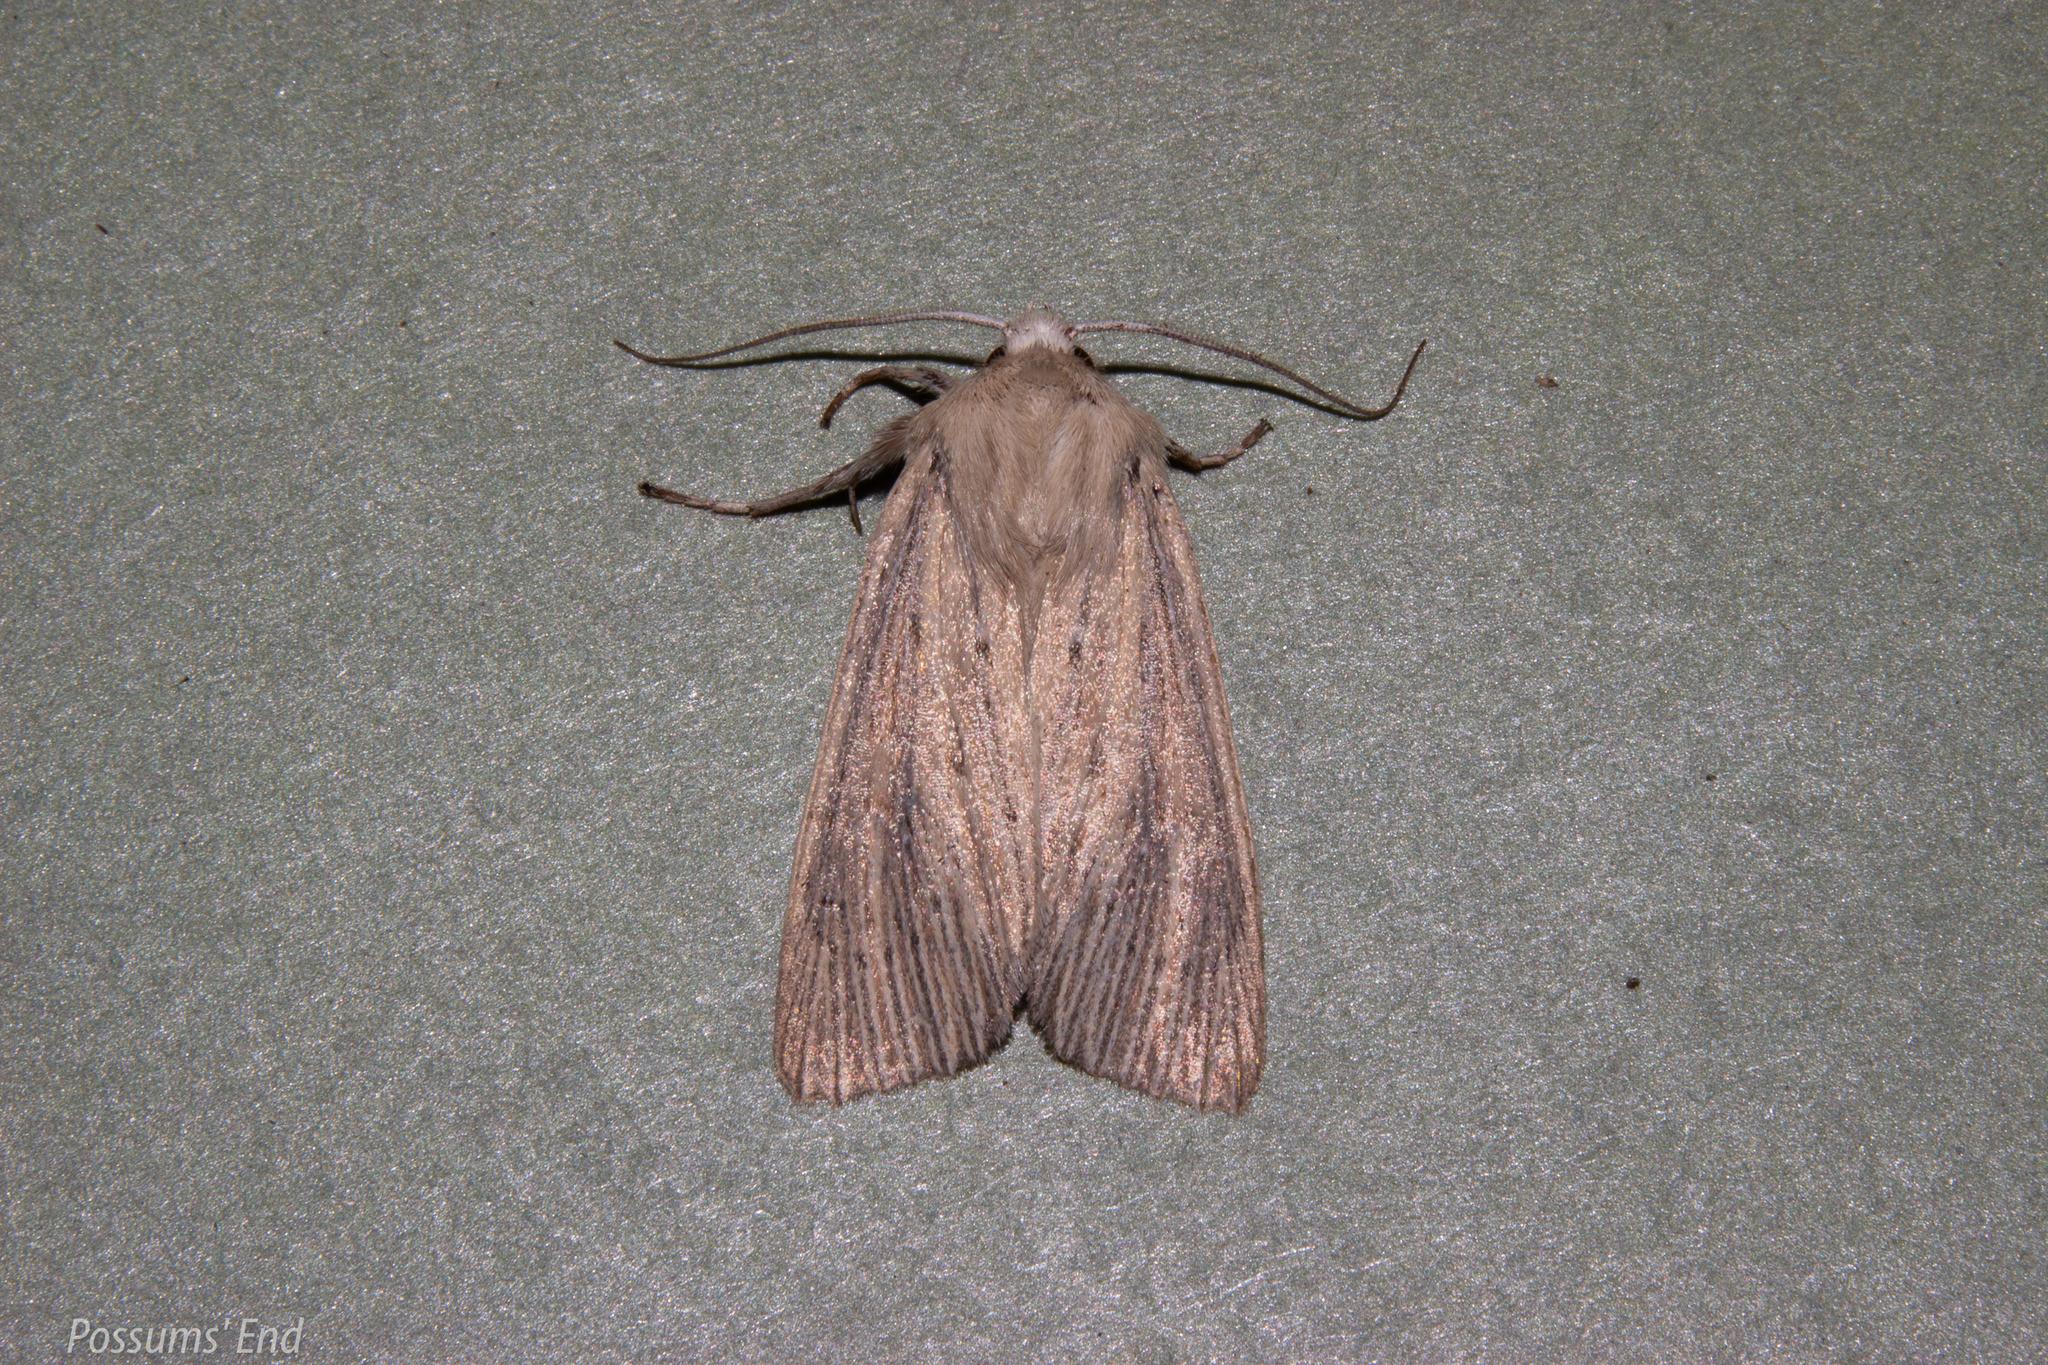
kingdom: Animalia
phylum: Arthropoda
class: Insecta
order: Lepidoptera
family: Noctuidae
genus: Ichneutica
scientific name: Ichneutica arotis
